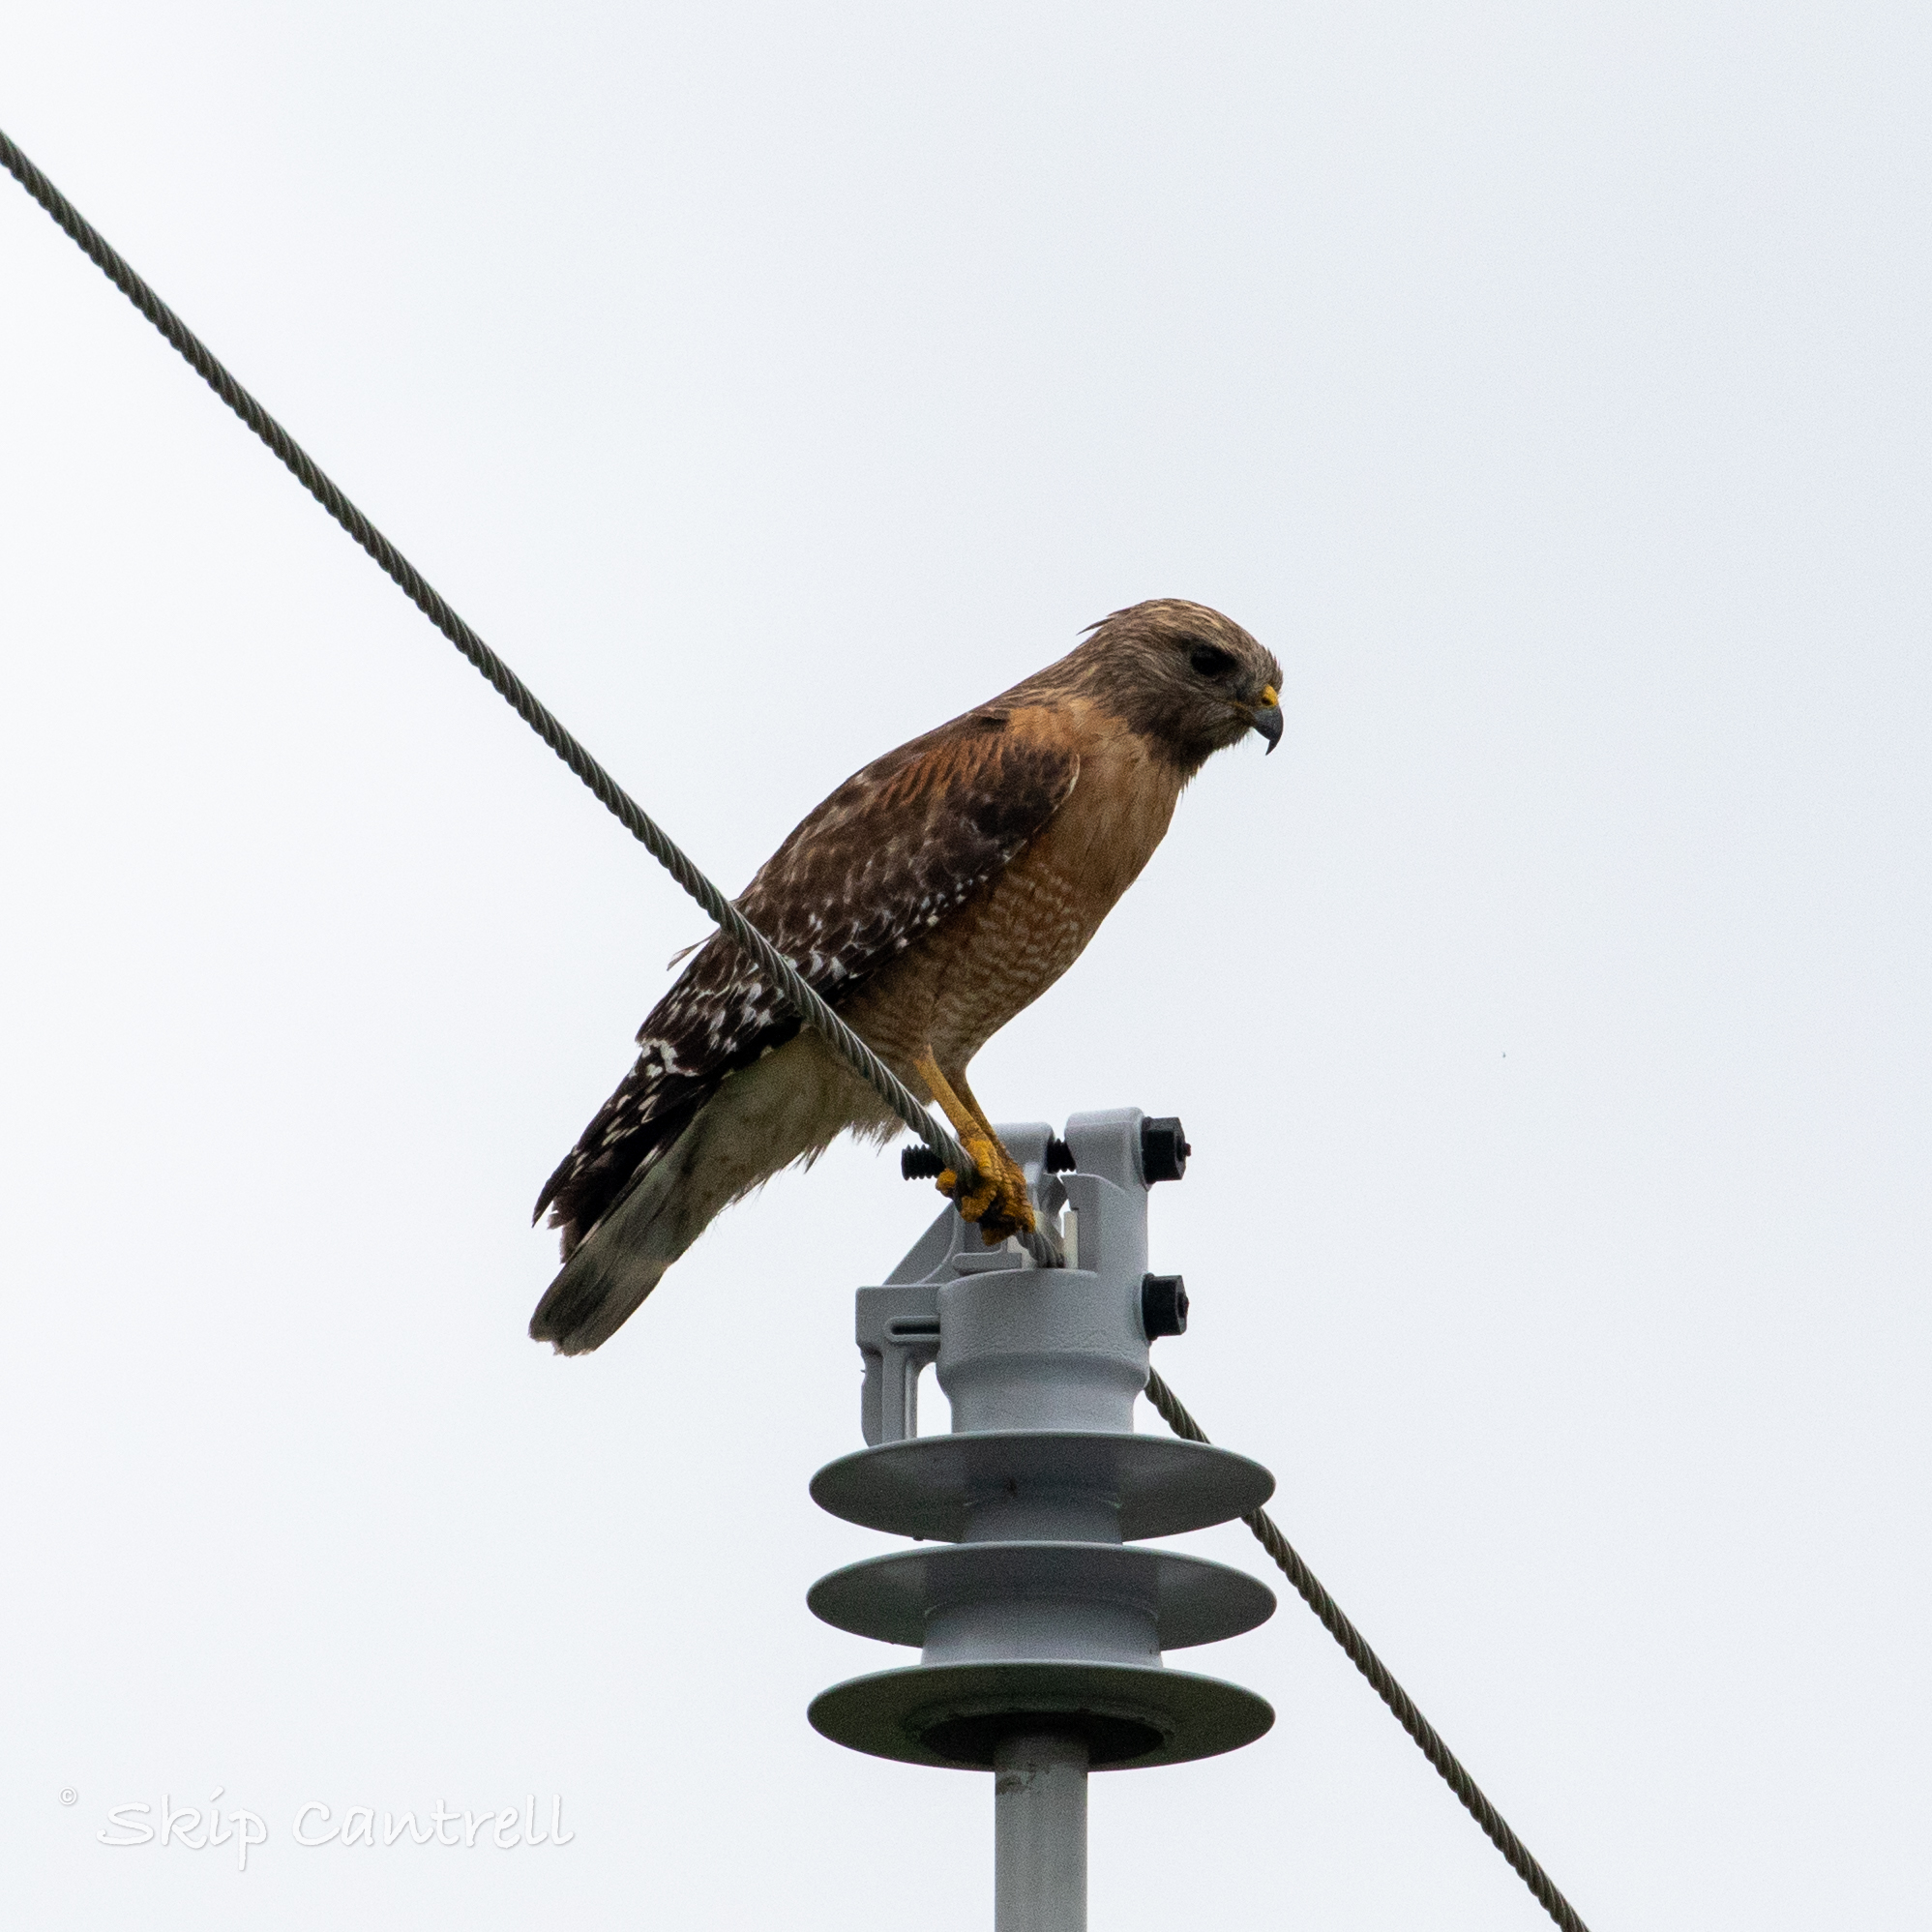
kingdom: Animalia
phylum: Chordata
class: Aves
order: Accipitriformes
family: Accipitridae
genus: Buteo
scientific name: Buteo lineatus
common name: Red-shouldered hawk
